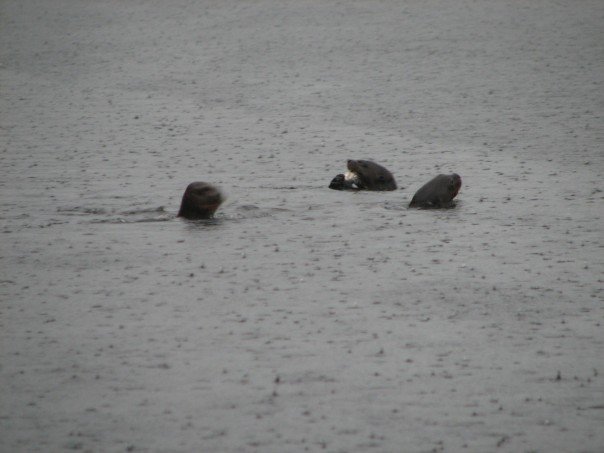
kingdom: Animalia
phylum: Chordata
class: Mammalia
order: Carnivora
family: Mustelidae
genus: Pteronura
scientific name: Pteronura brasiliensis
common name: Giant otter
